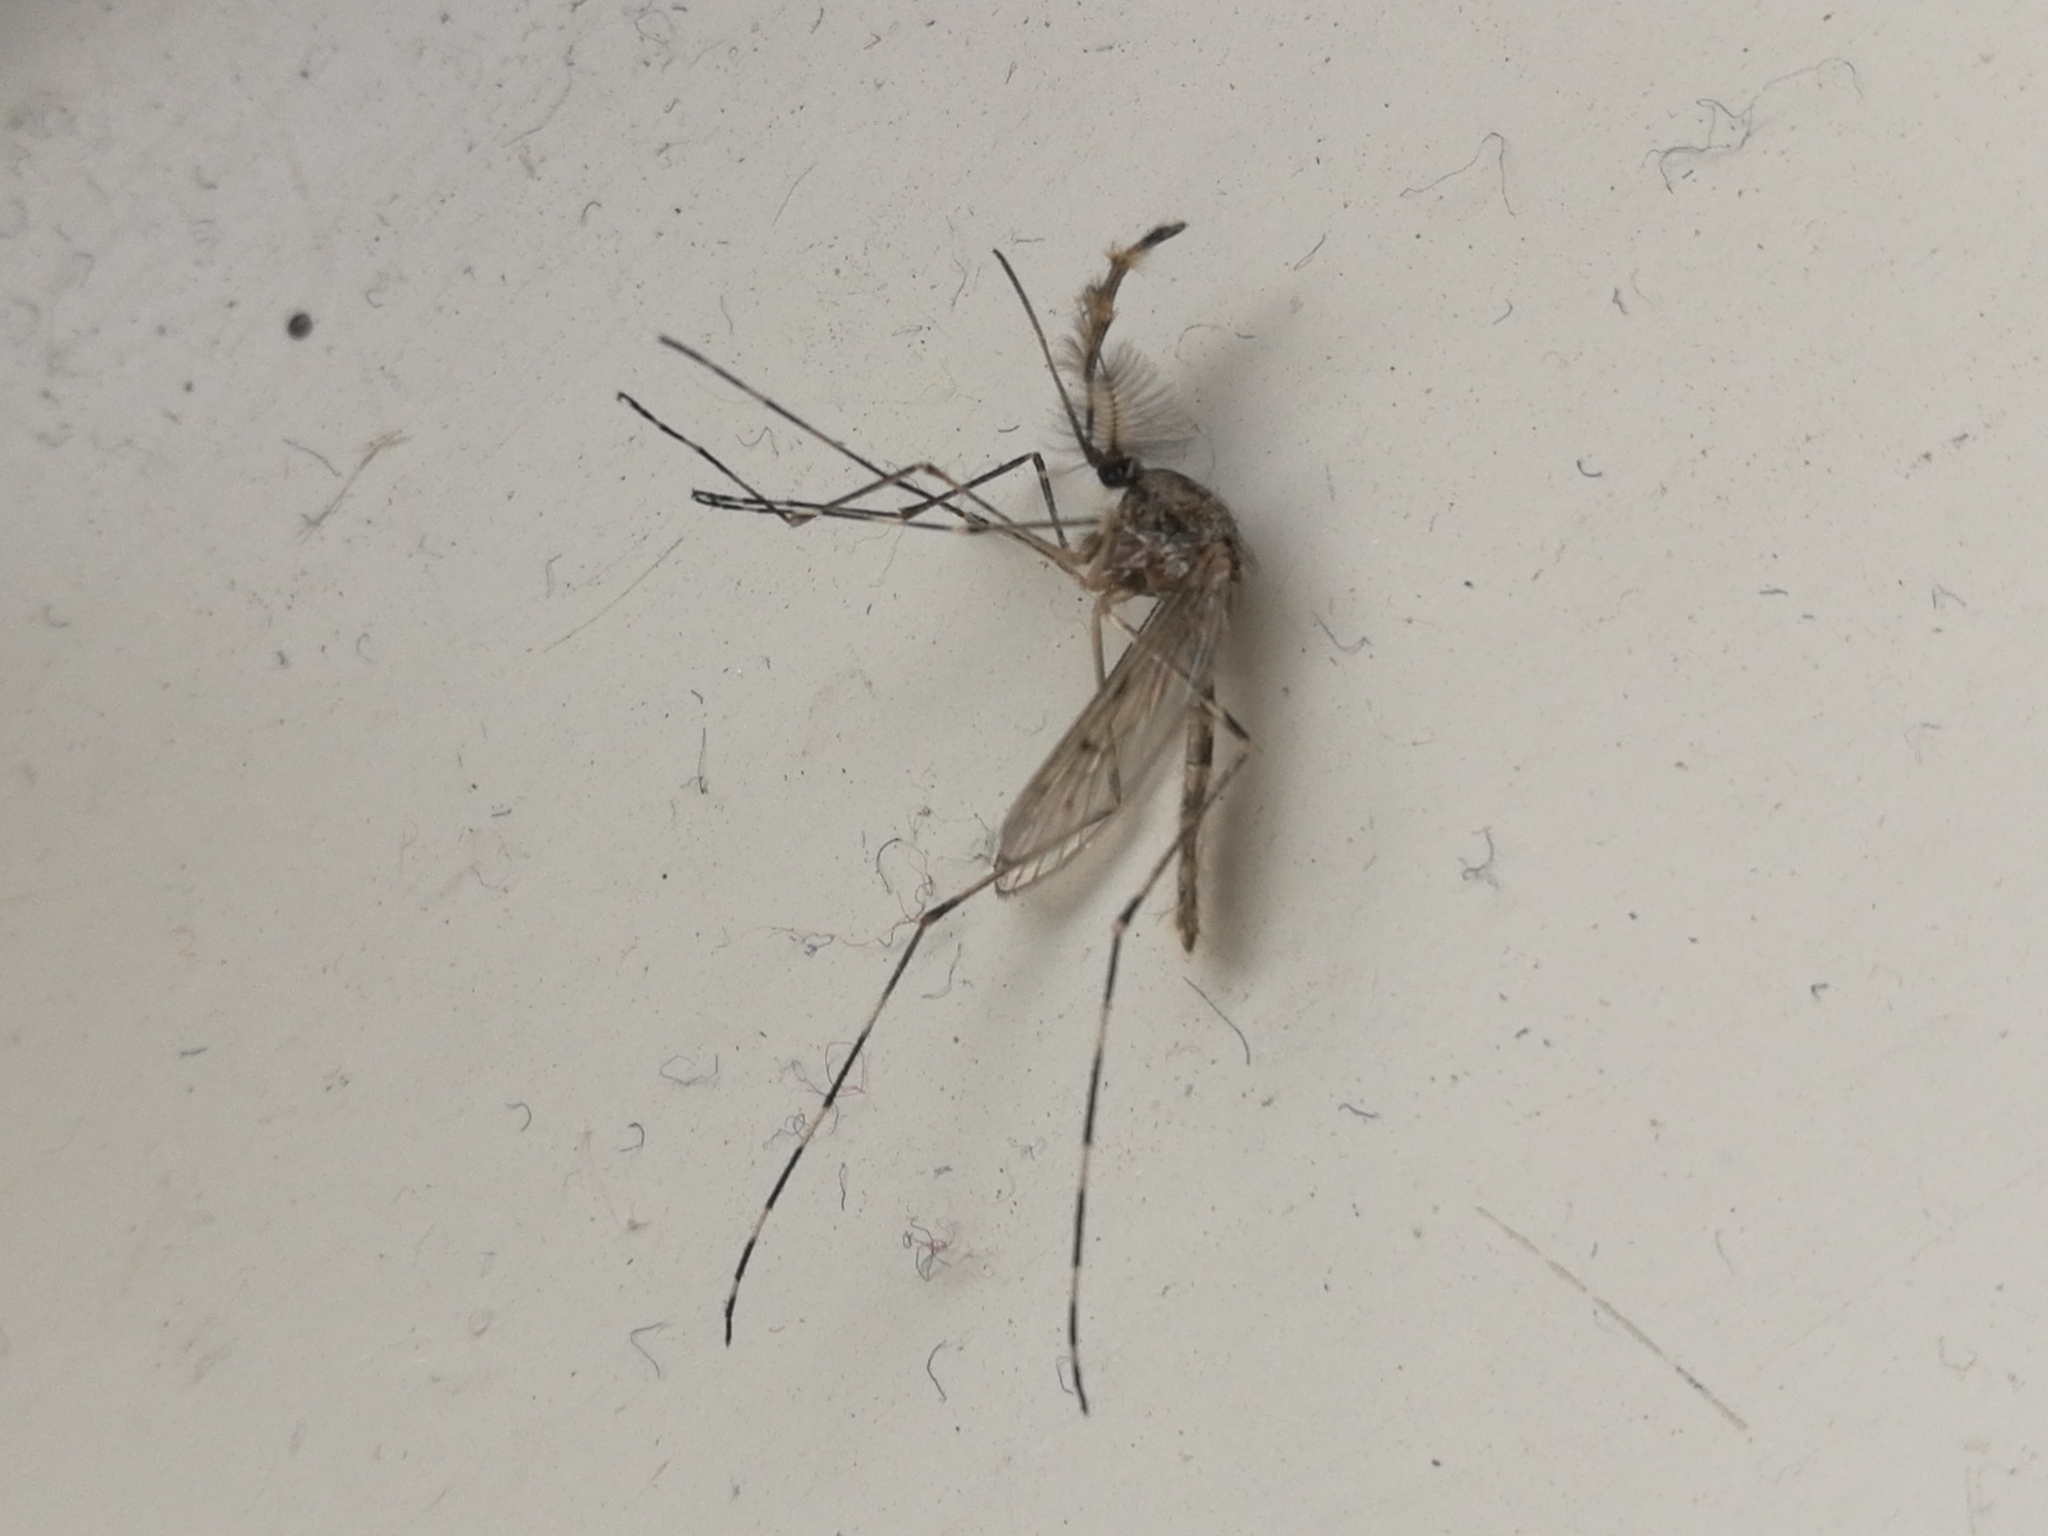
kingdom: Animalia
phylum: Arthropoda
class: Insecta
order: Diptera
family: Culicidae
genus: Culiseta
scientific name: Culiseta annulata
